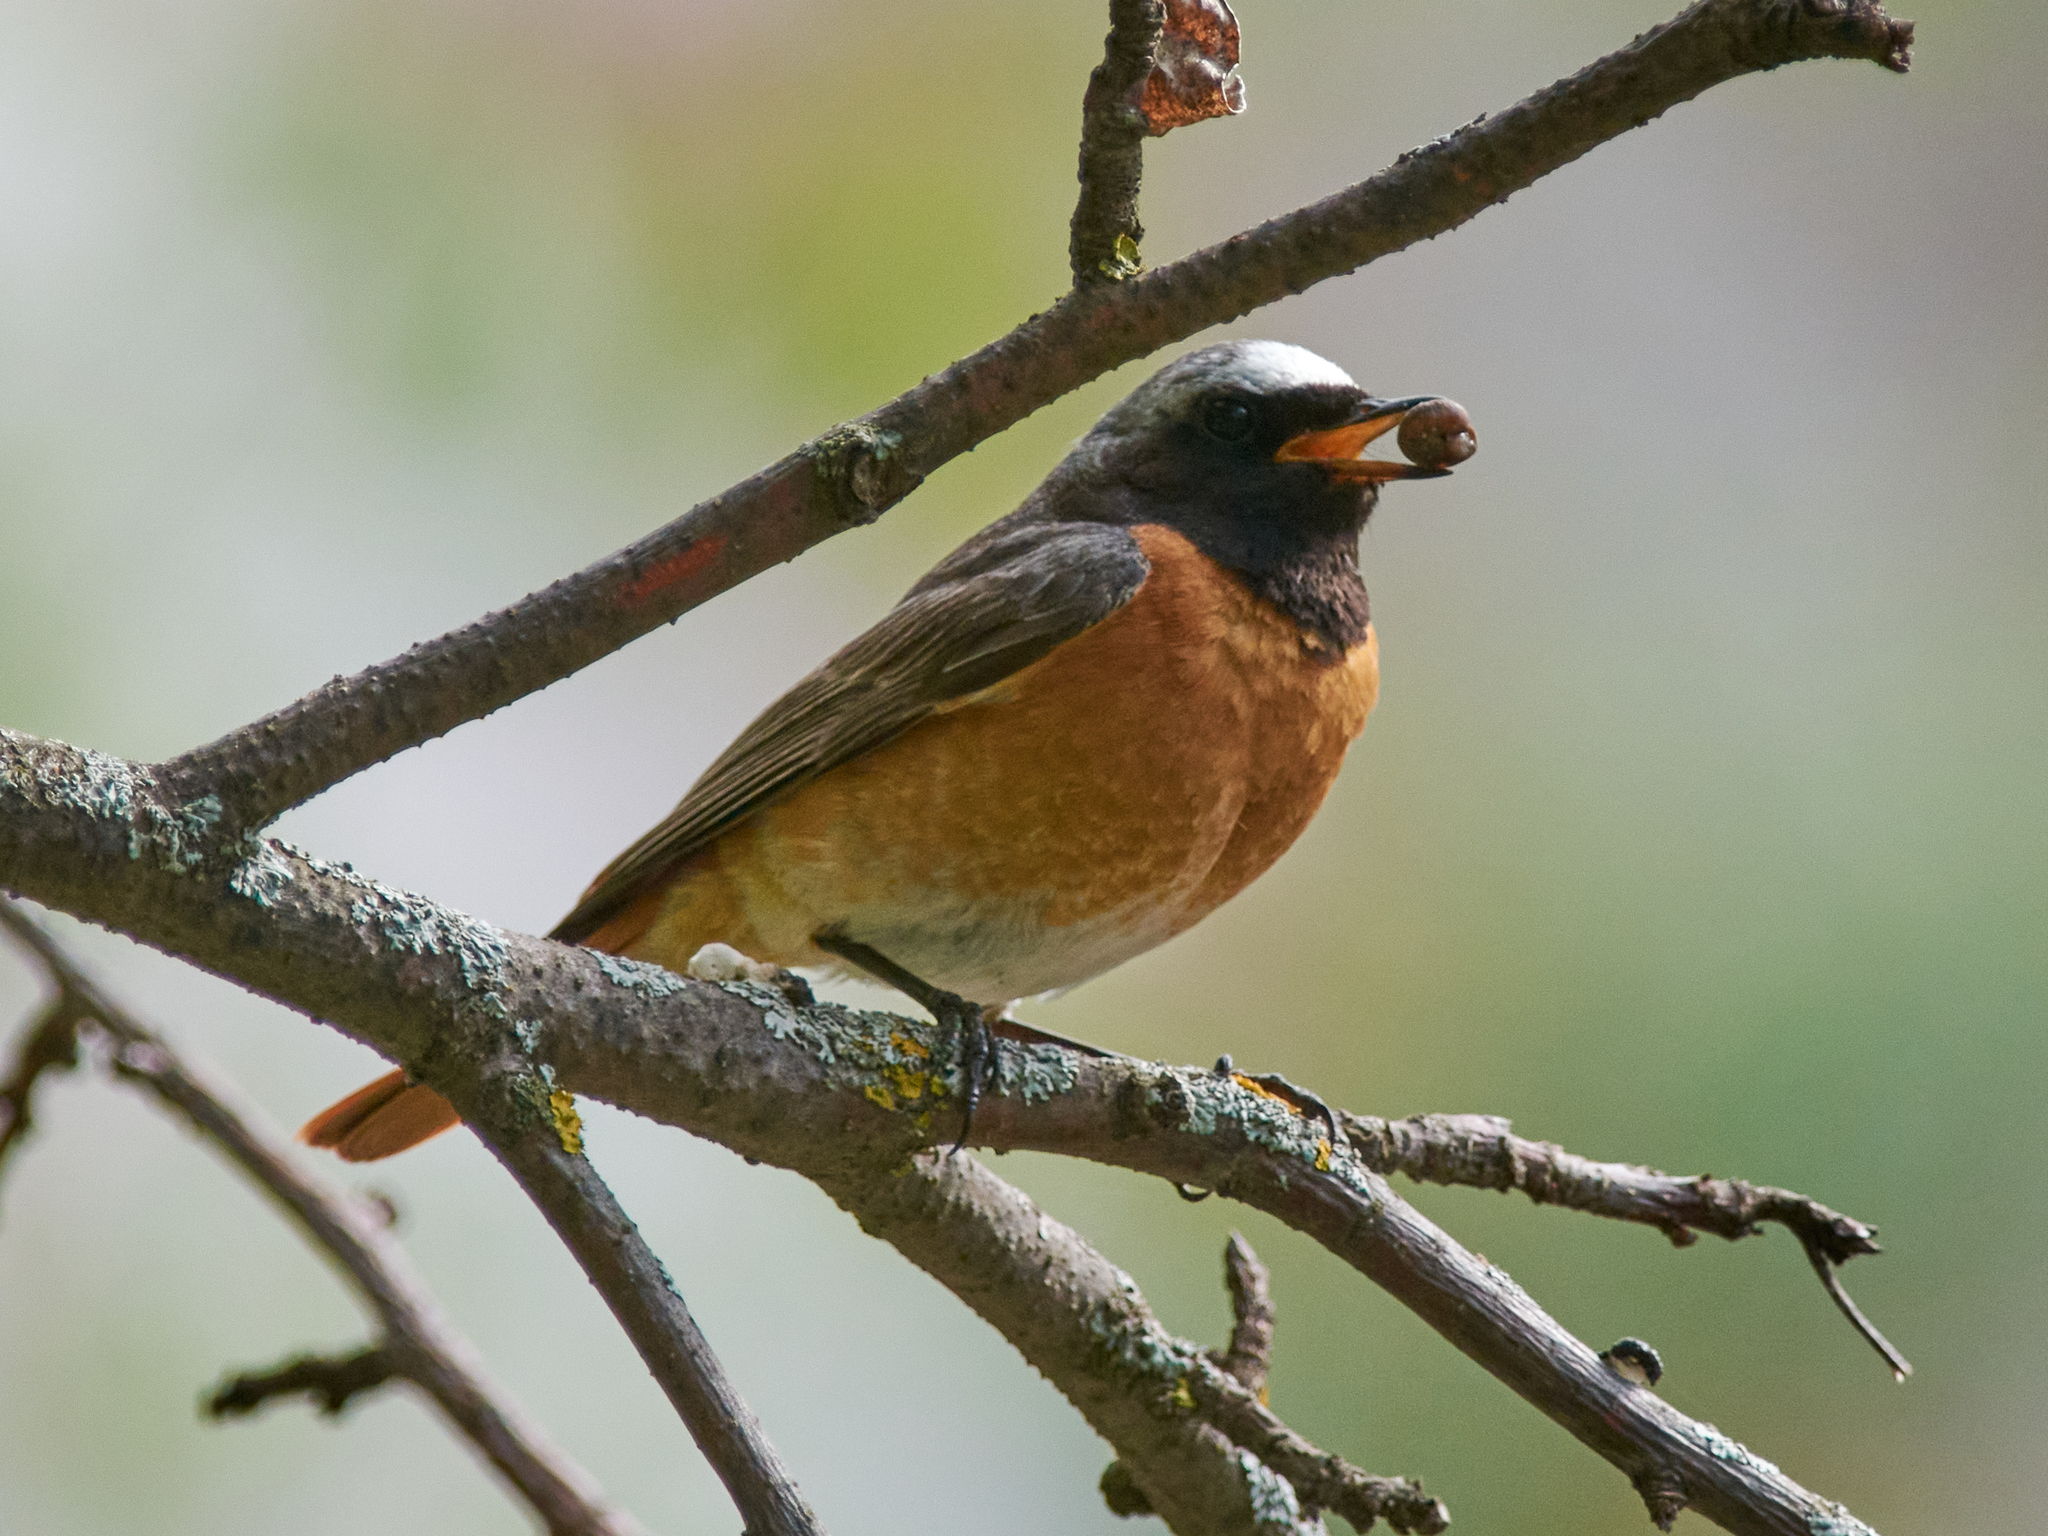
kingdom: Animalia
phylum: Chordata
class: Aves
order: Passeriformes
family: Muscicapidae
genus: Phoenicurus
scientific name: Phoenicurus phoenicurus
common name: Common redstart
